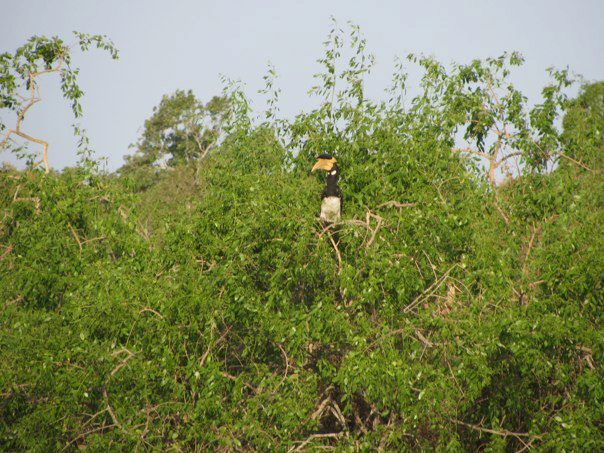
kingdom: Animalia
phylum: Chordata
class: Aves
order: Bucerotiformes
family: Bucerotidae
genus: Anthracoceros
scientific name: Anthracoceros coronatus
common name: Malabar pied hornbill
